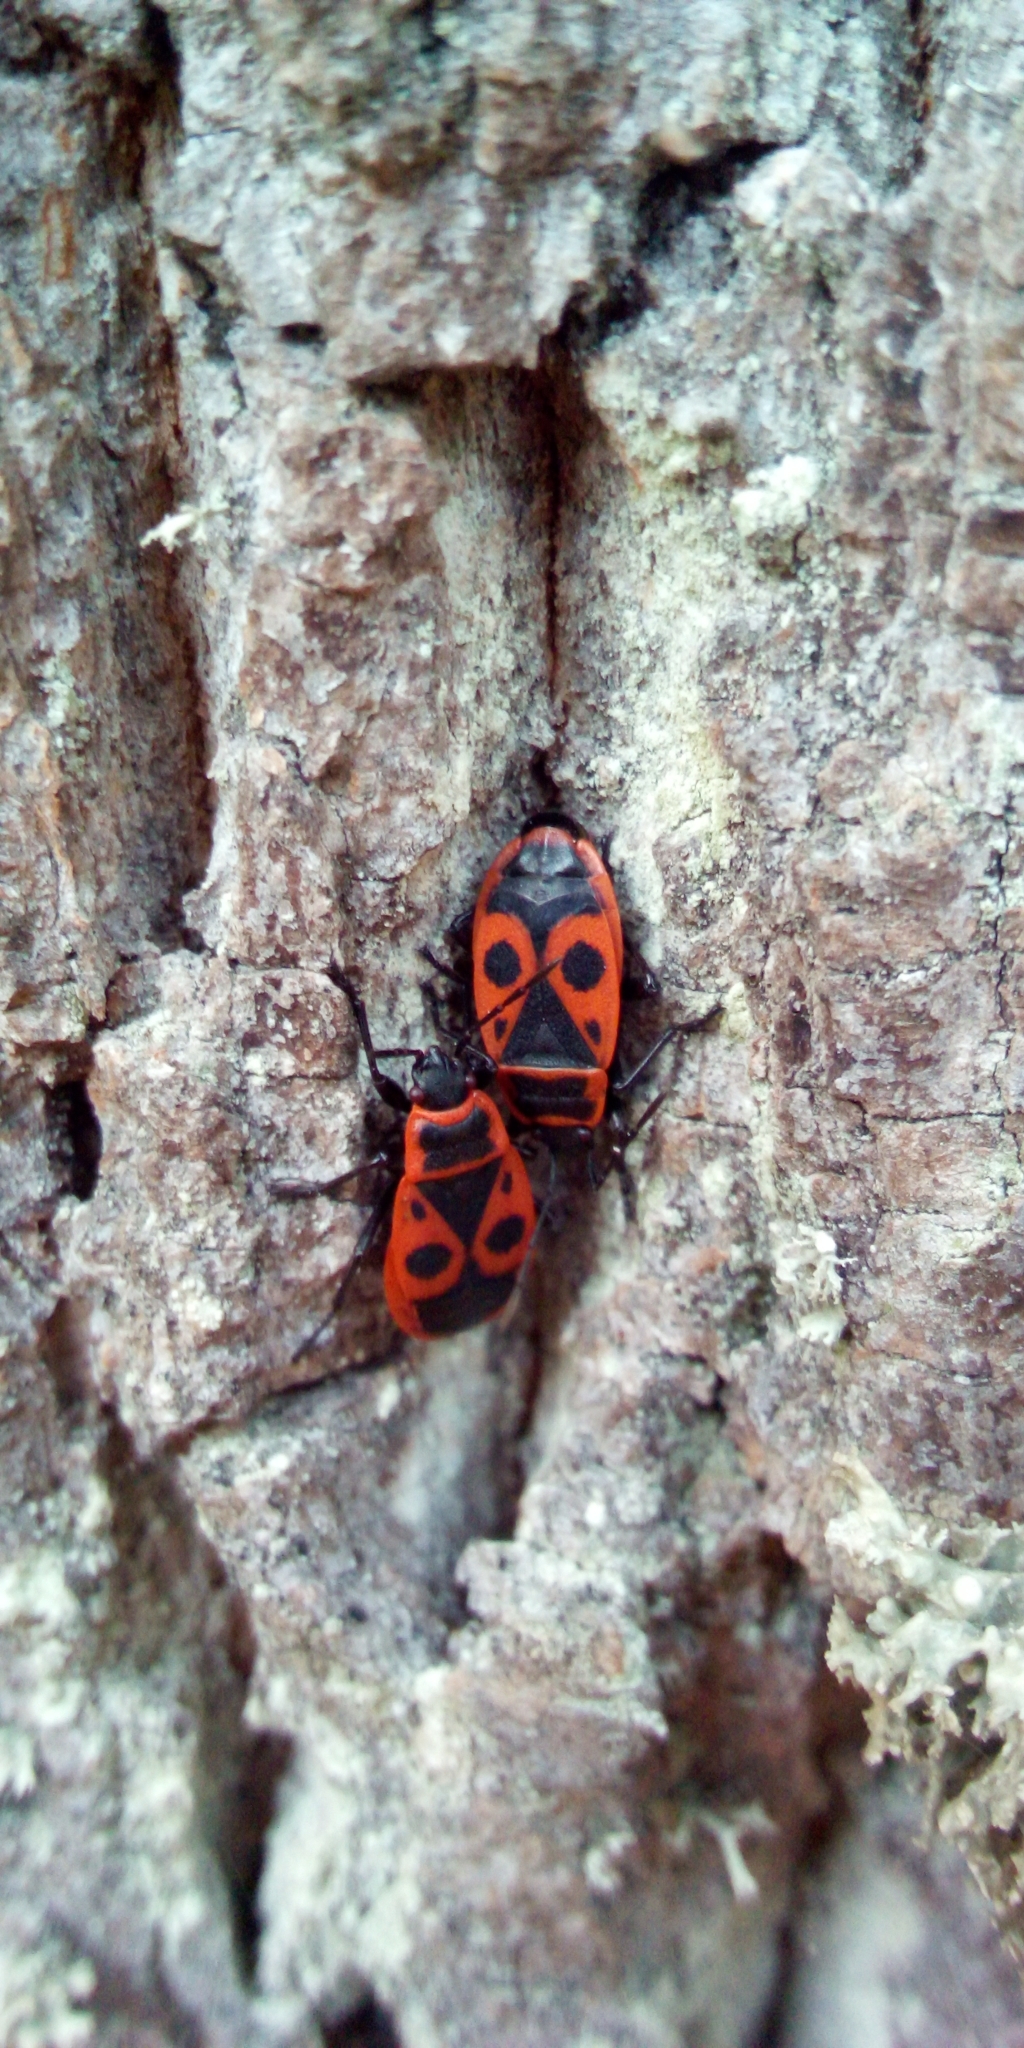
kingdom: Animalia
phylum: Arthropoda
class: Insecta
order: Hemiptera
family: Pyrrhocoridae
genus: Pyrrhocoris
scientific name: Pyrrhocoris apterus
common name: Firebug
